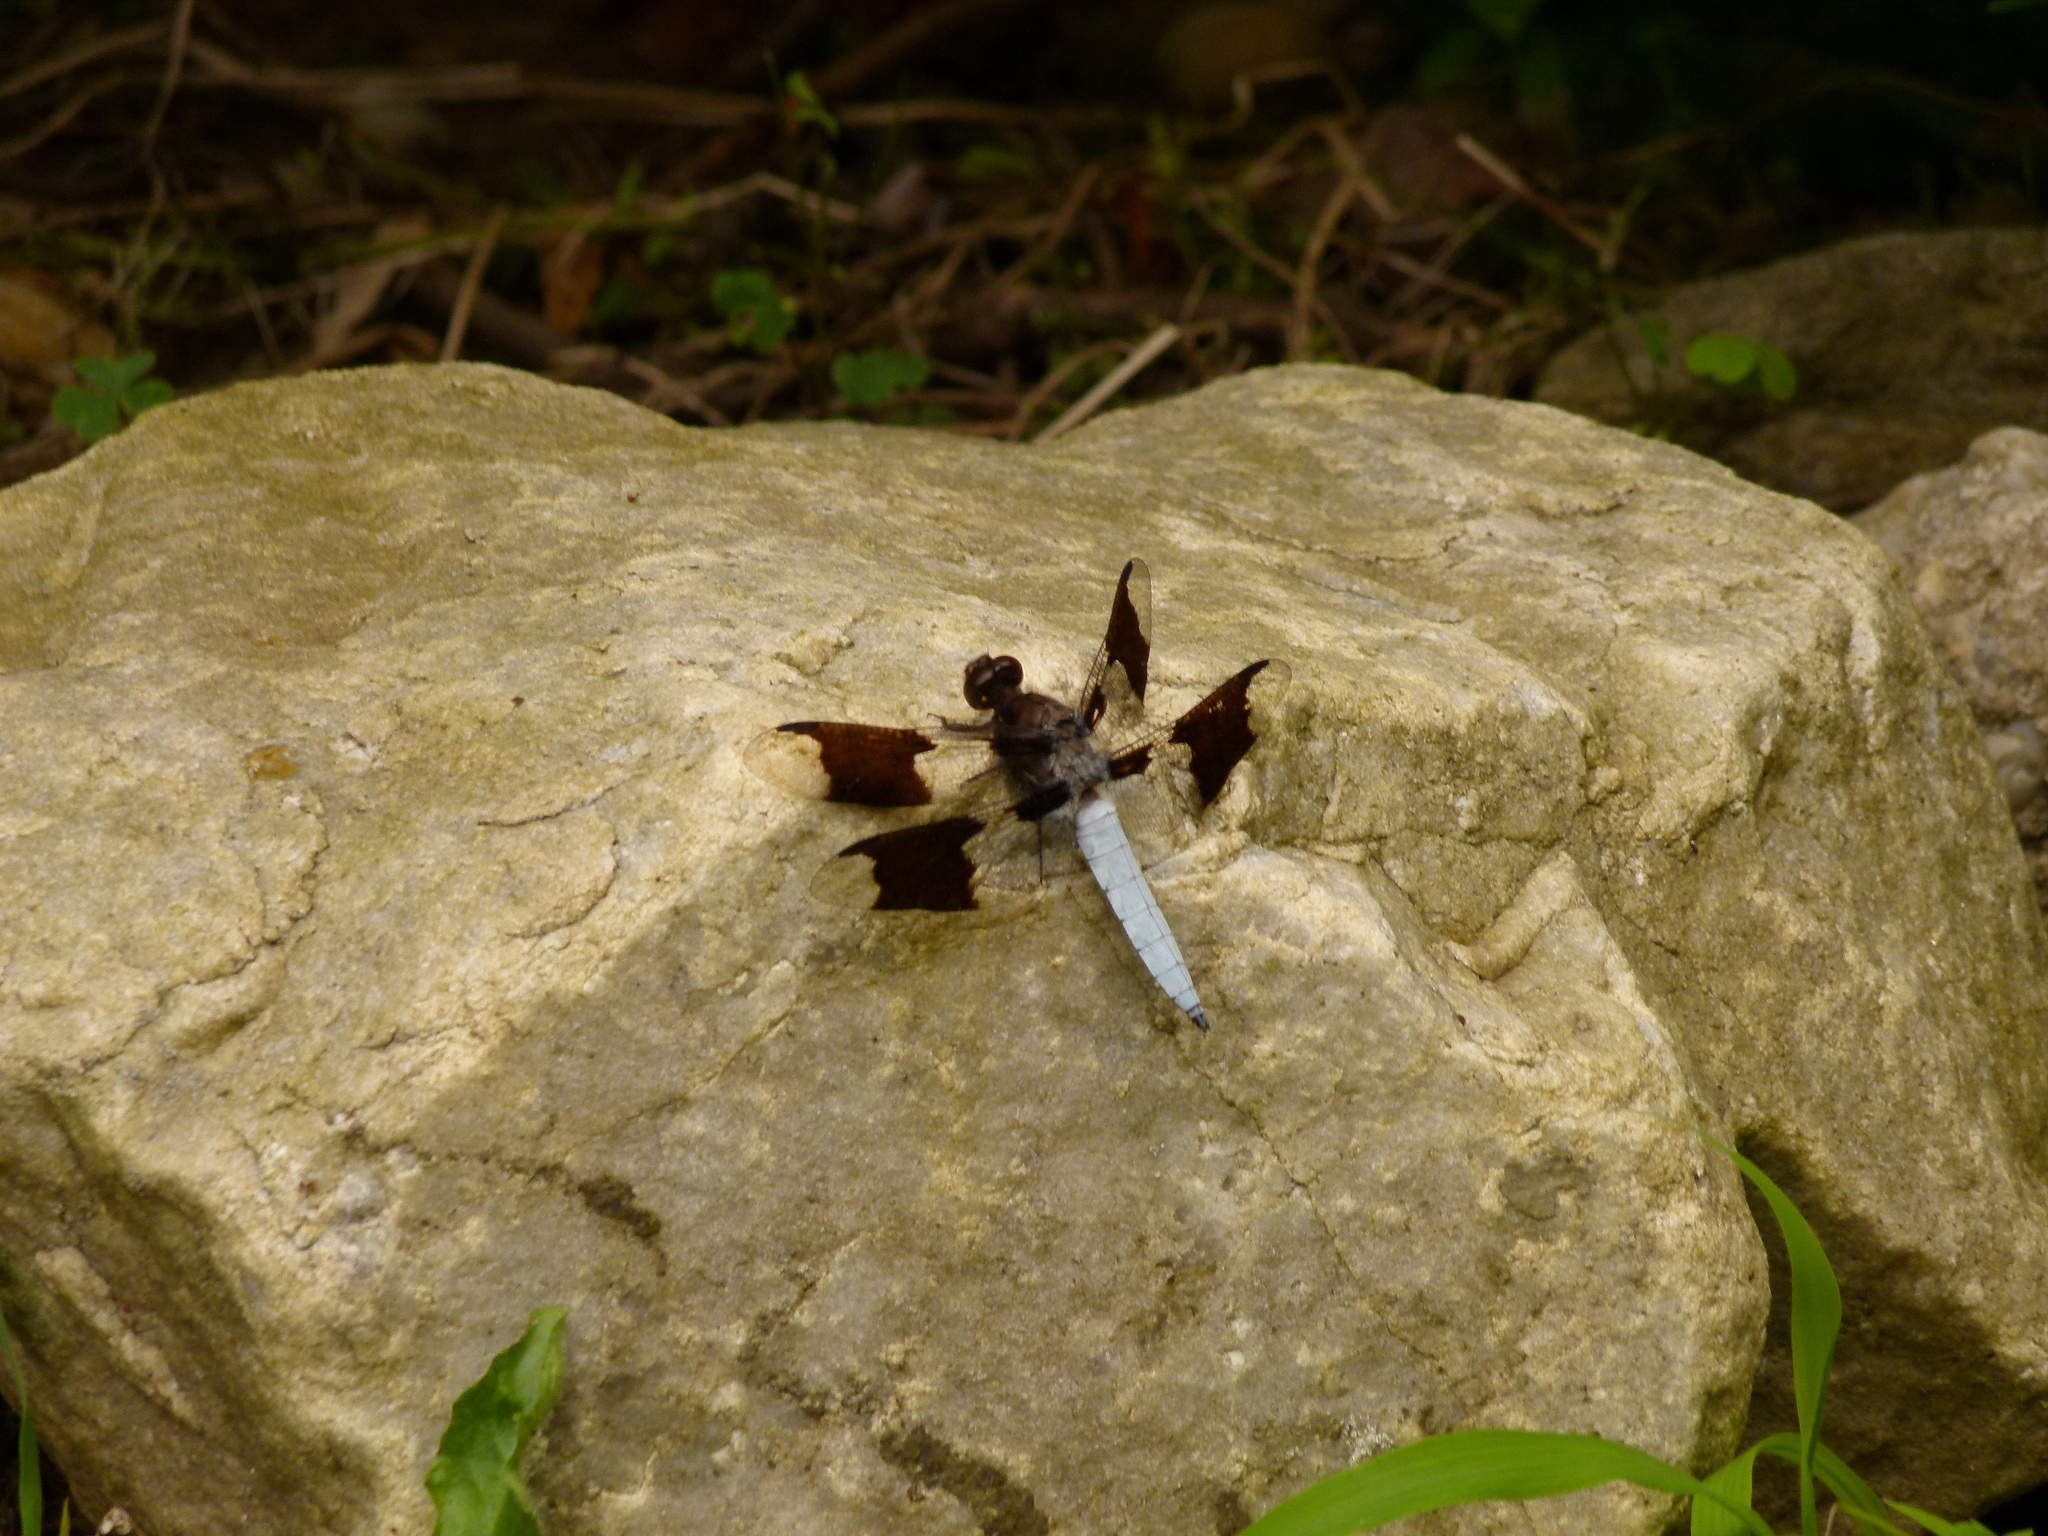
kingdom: Animalia
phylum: Arthropoda
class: Insecta
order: Odonata
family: Libellulidae
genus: Plathemis
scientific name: Plathemis lydia
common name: Common whitetail
